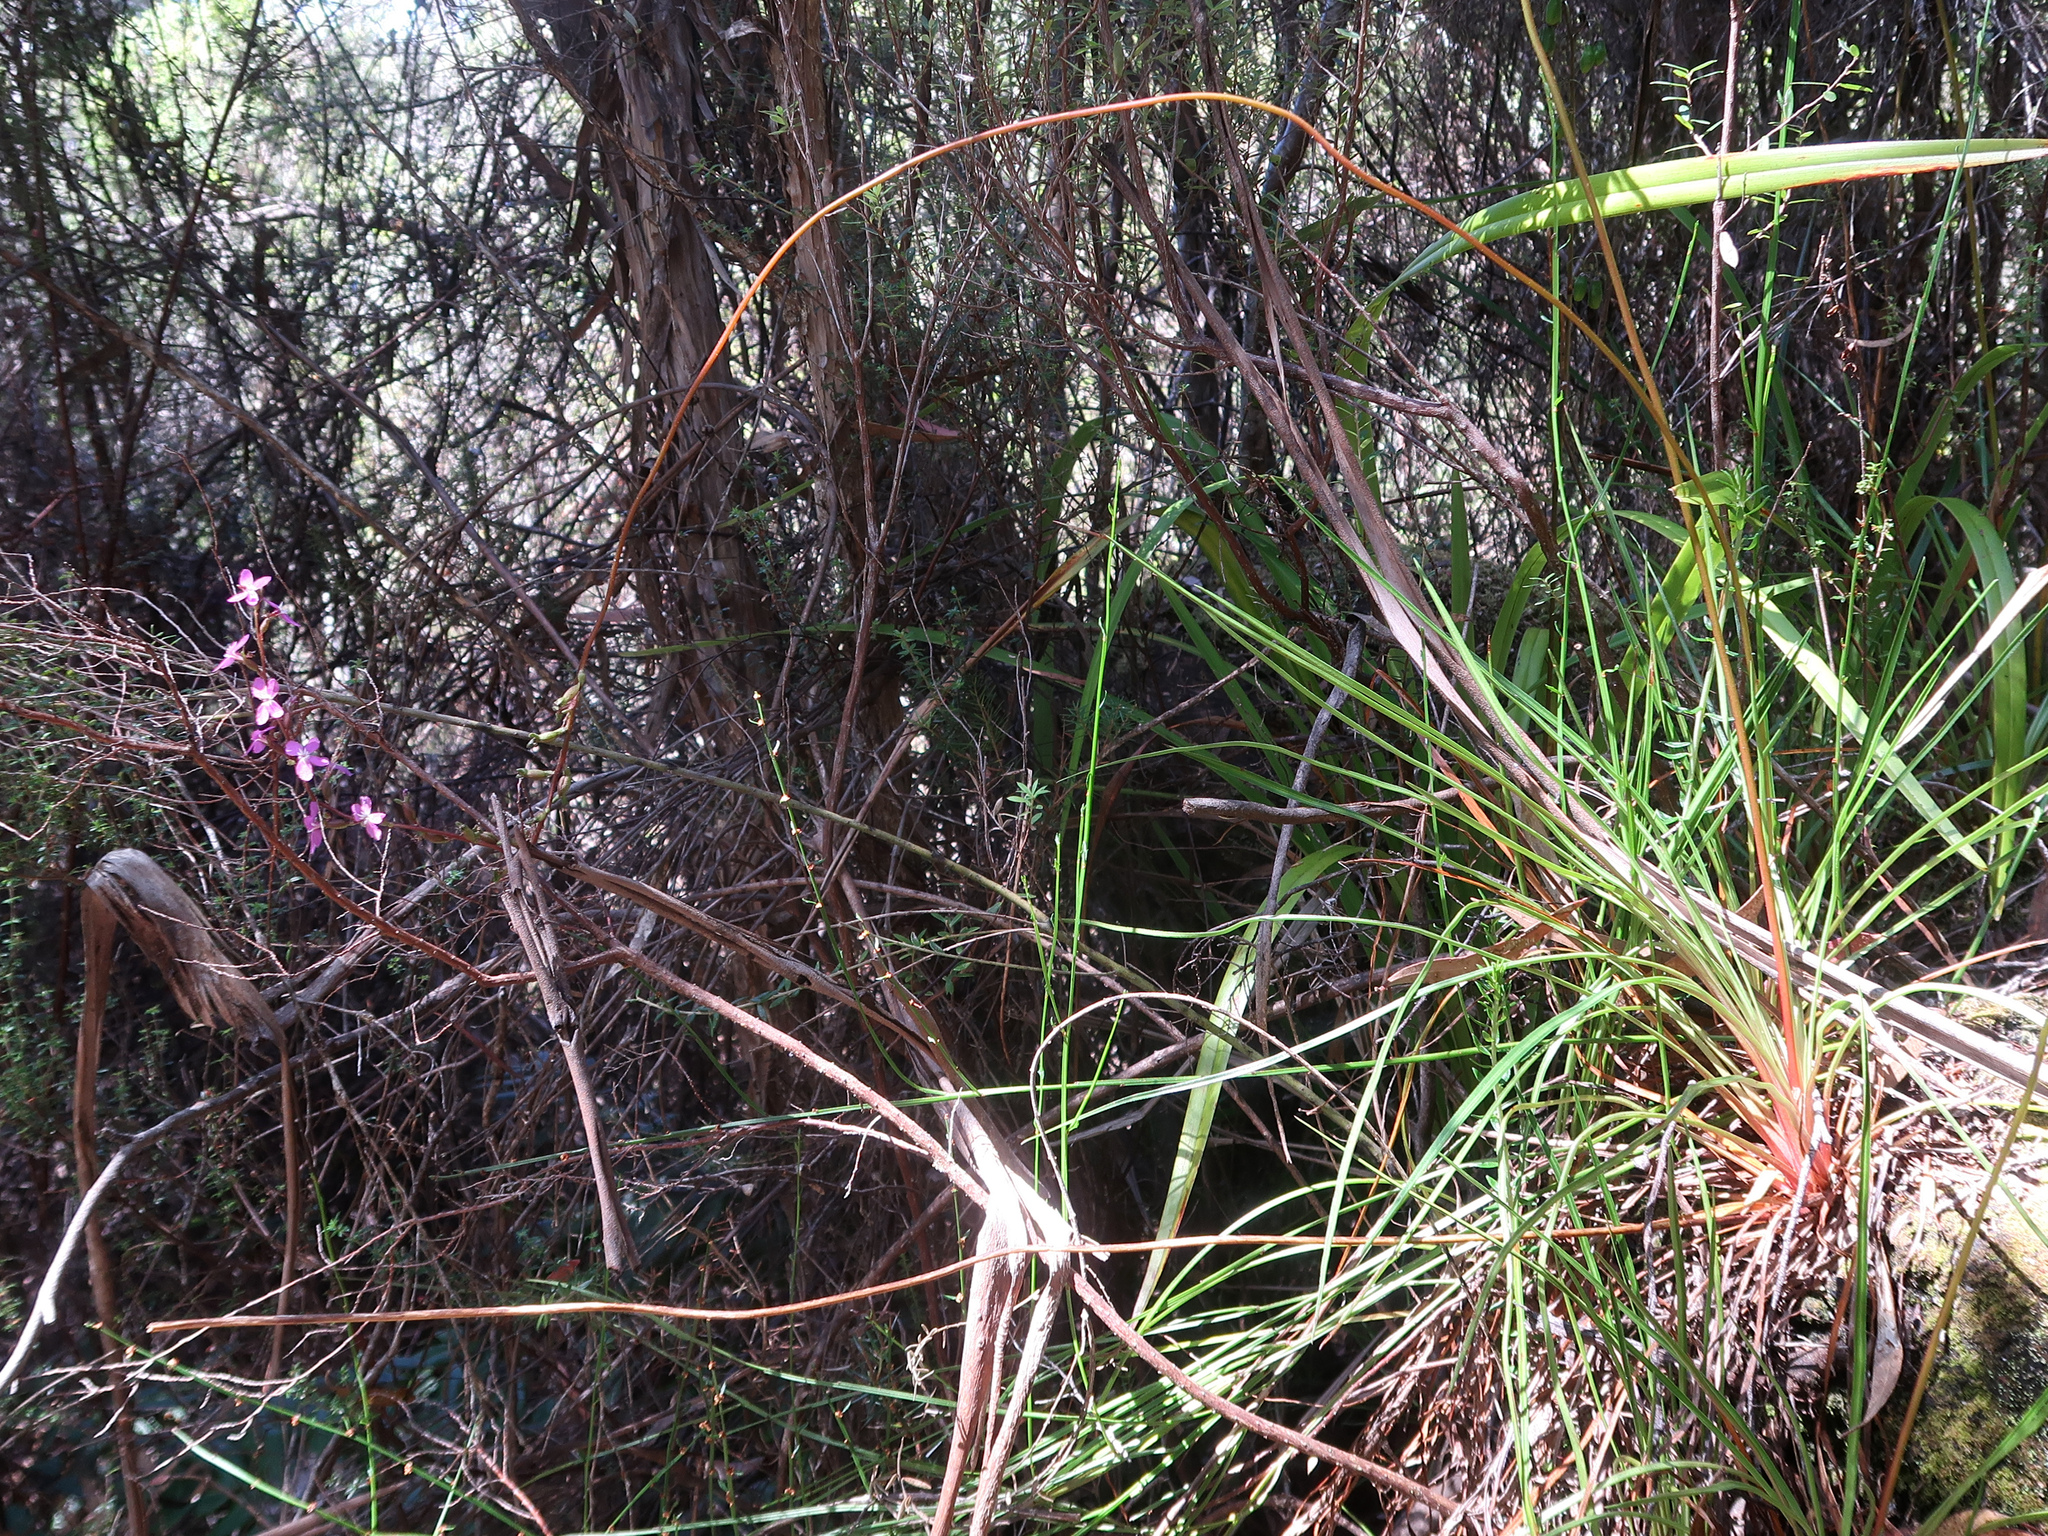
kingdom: Plantae
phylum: Tracheophyta
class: Magnoliopsida
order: Asterales
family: Stylidiaceae
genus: Stylidium
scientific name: Stylidium graminifolium
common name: Grass triggerplant
